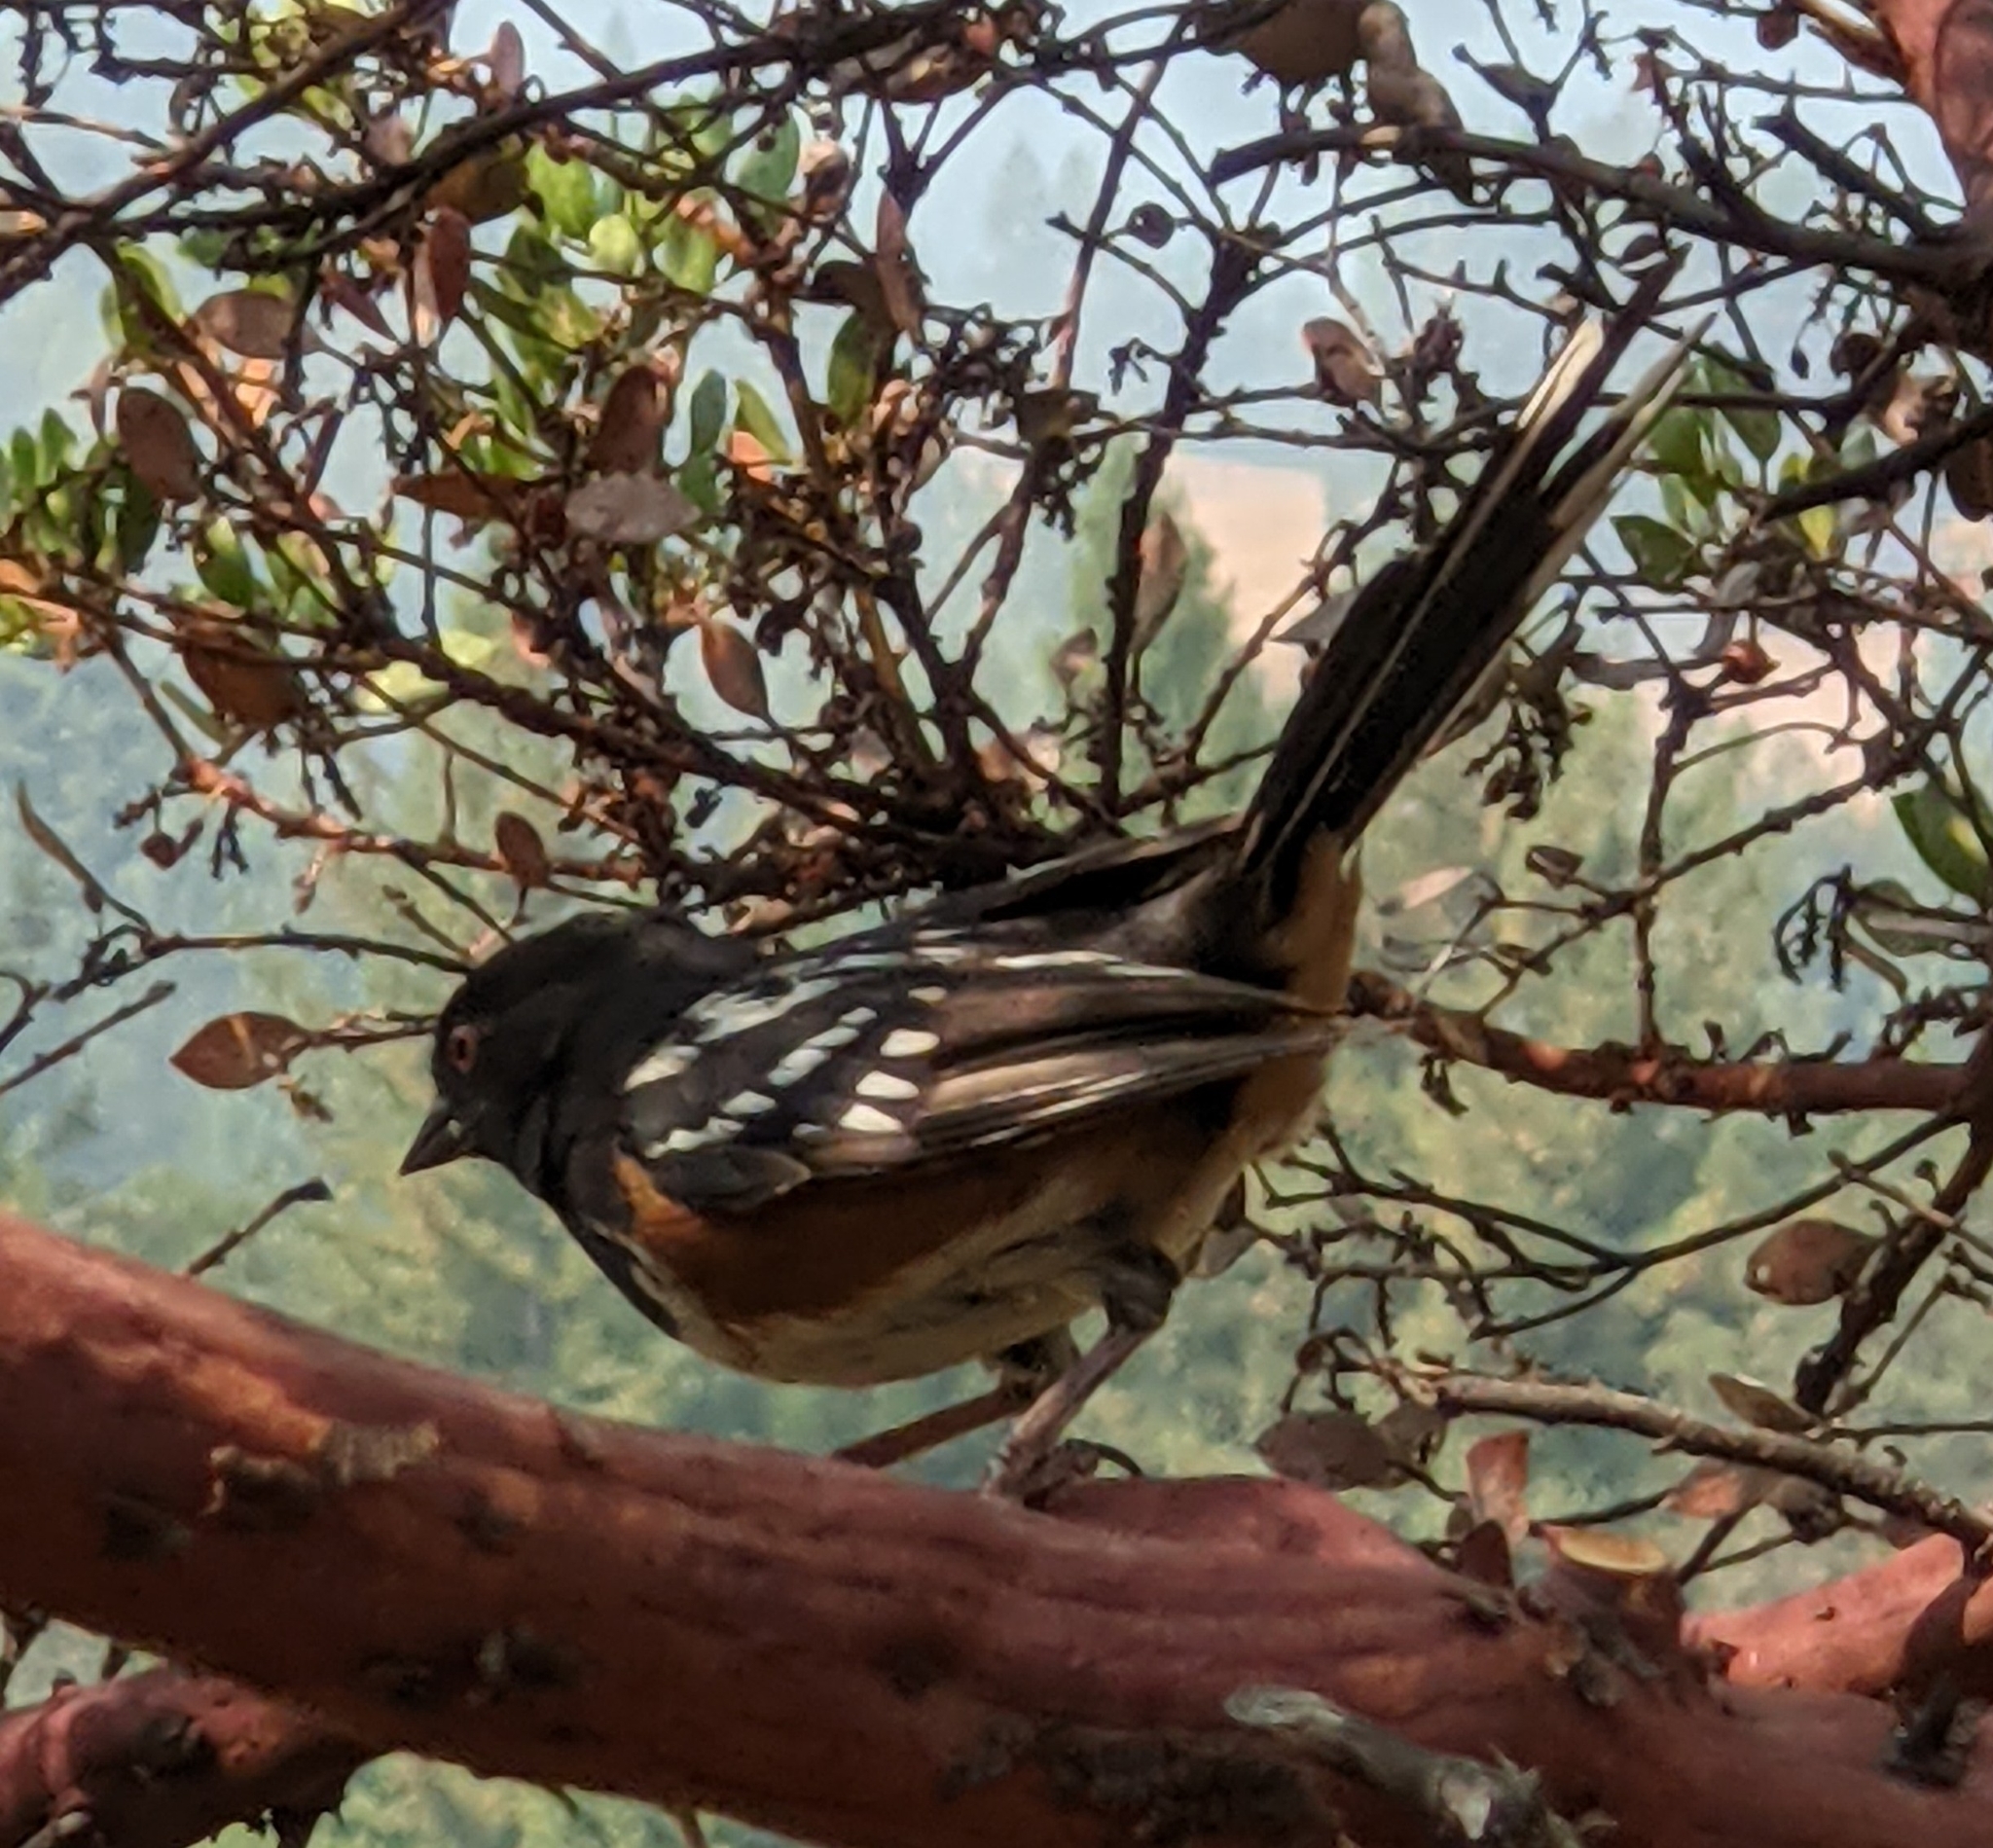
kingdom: Animalia
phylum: Chordata
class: Aves
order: Passeriformes
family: Passerellidae
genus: Pipilo
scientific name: Pipilo maculatus
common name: Spotted towhee
